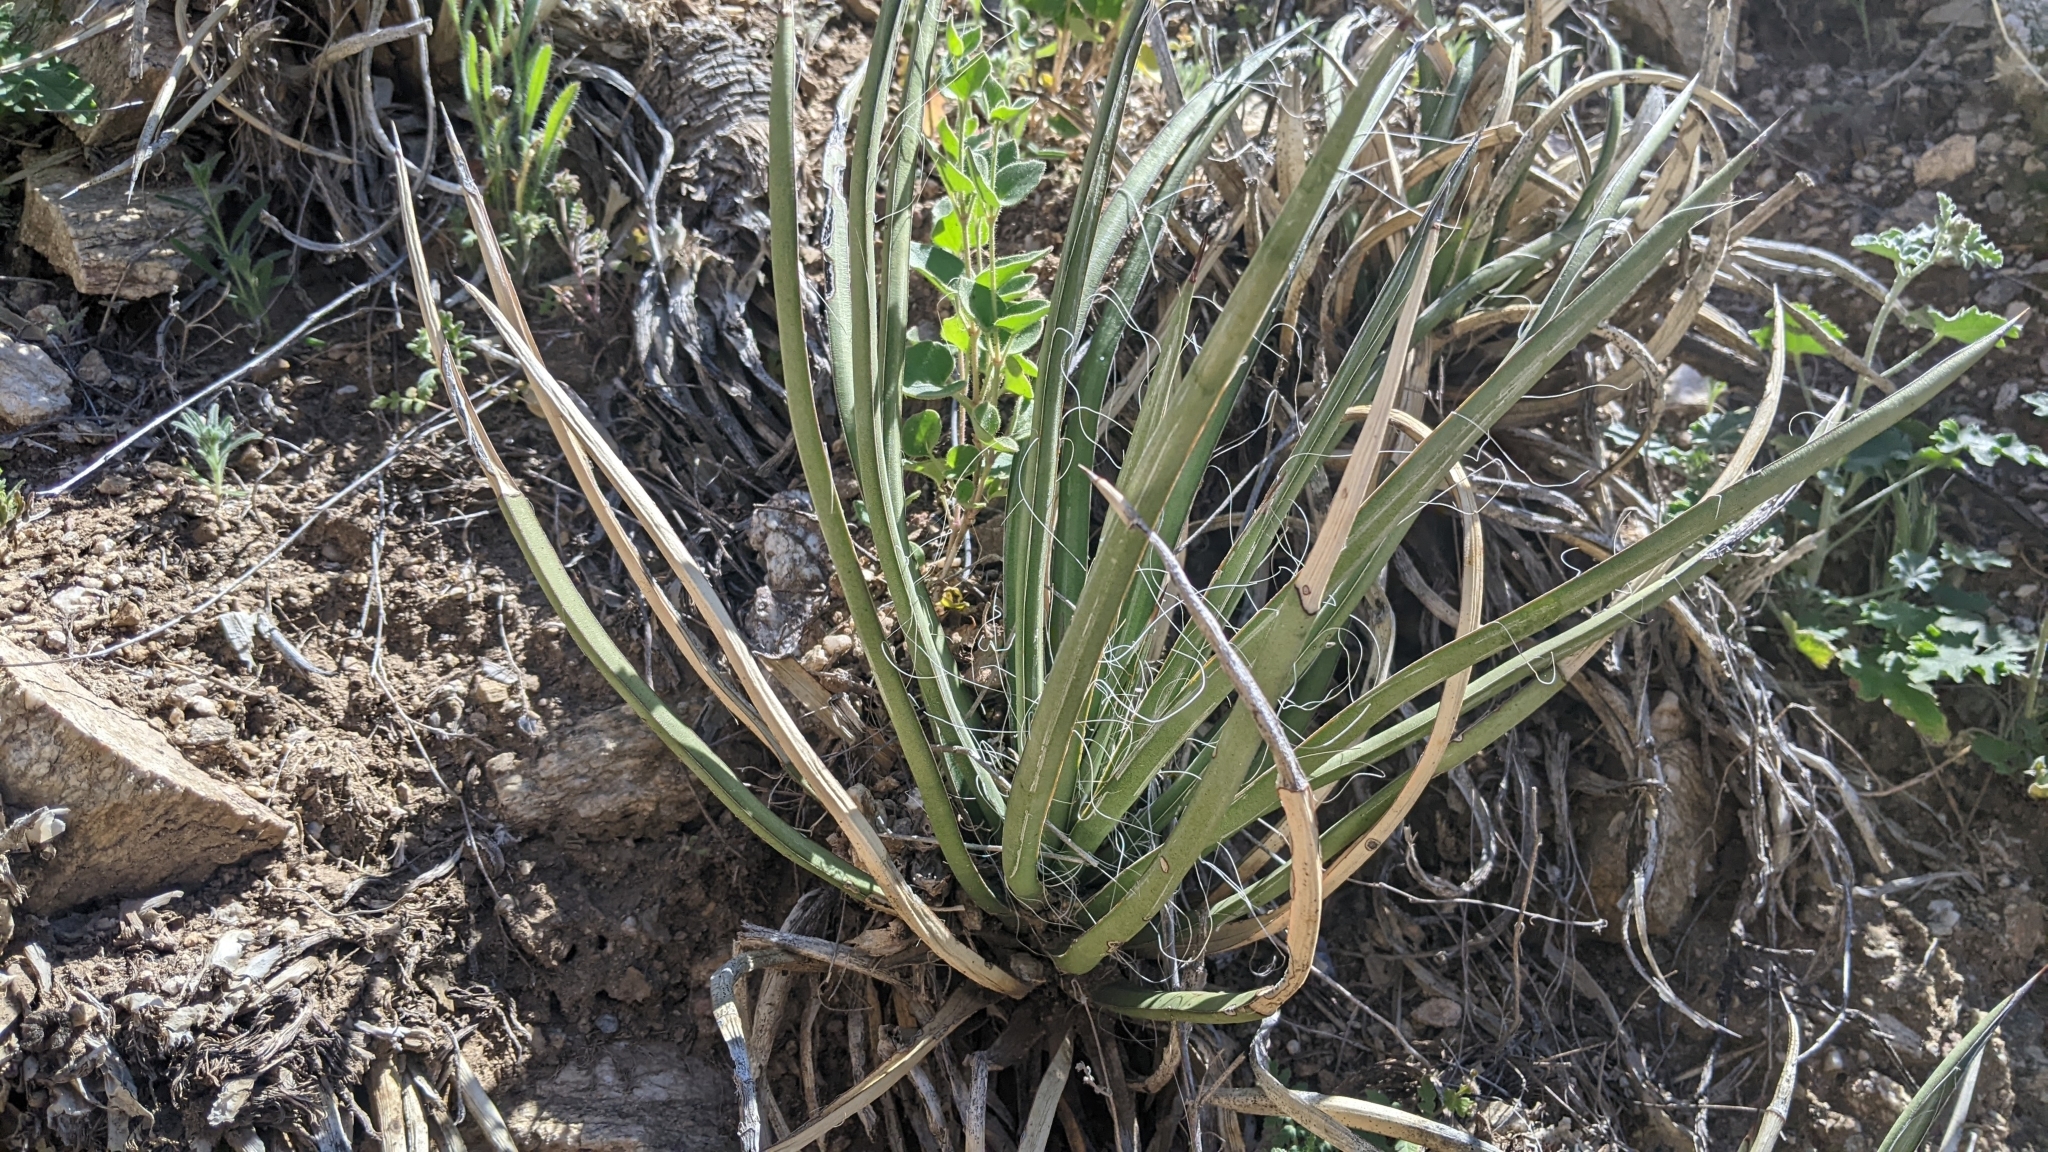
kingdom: Plantae
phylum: Tracheophyta
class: Liliopsida
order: Asparagales
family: Asparagaceae
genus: Agave
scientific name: Agave schottii
